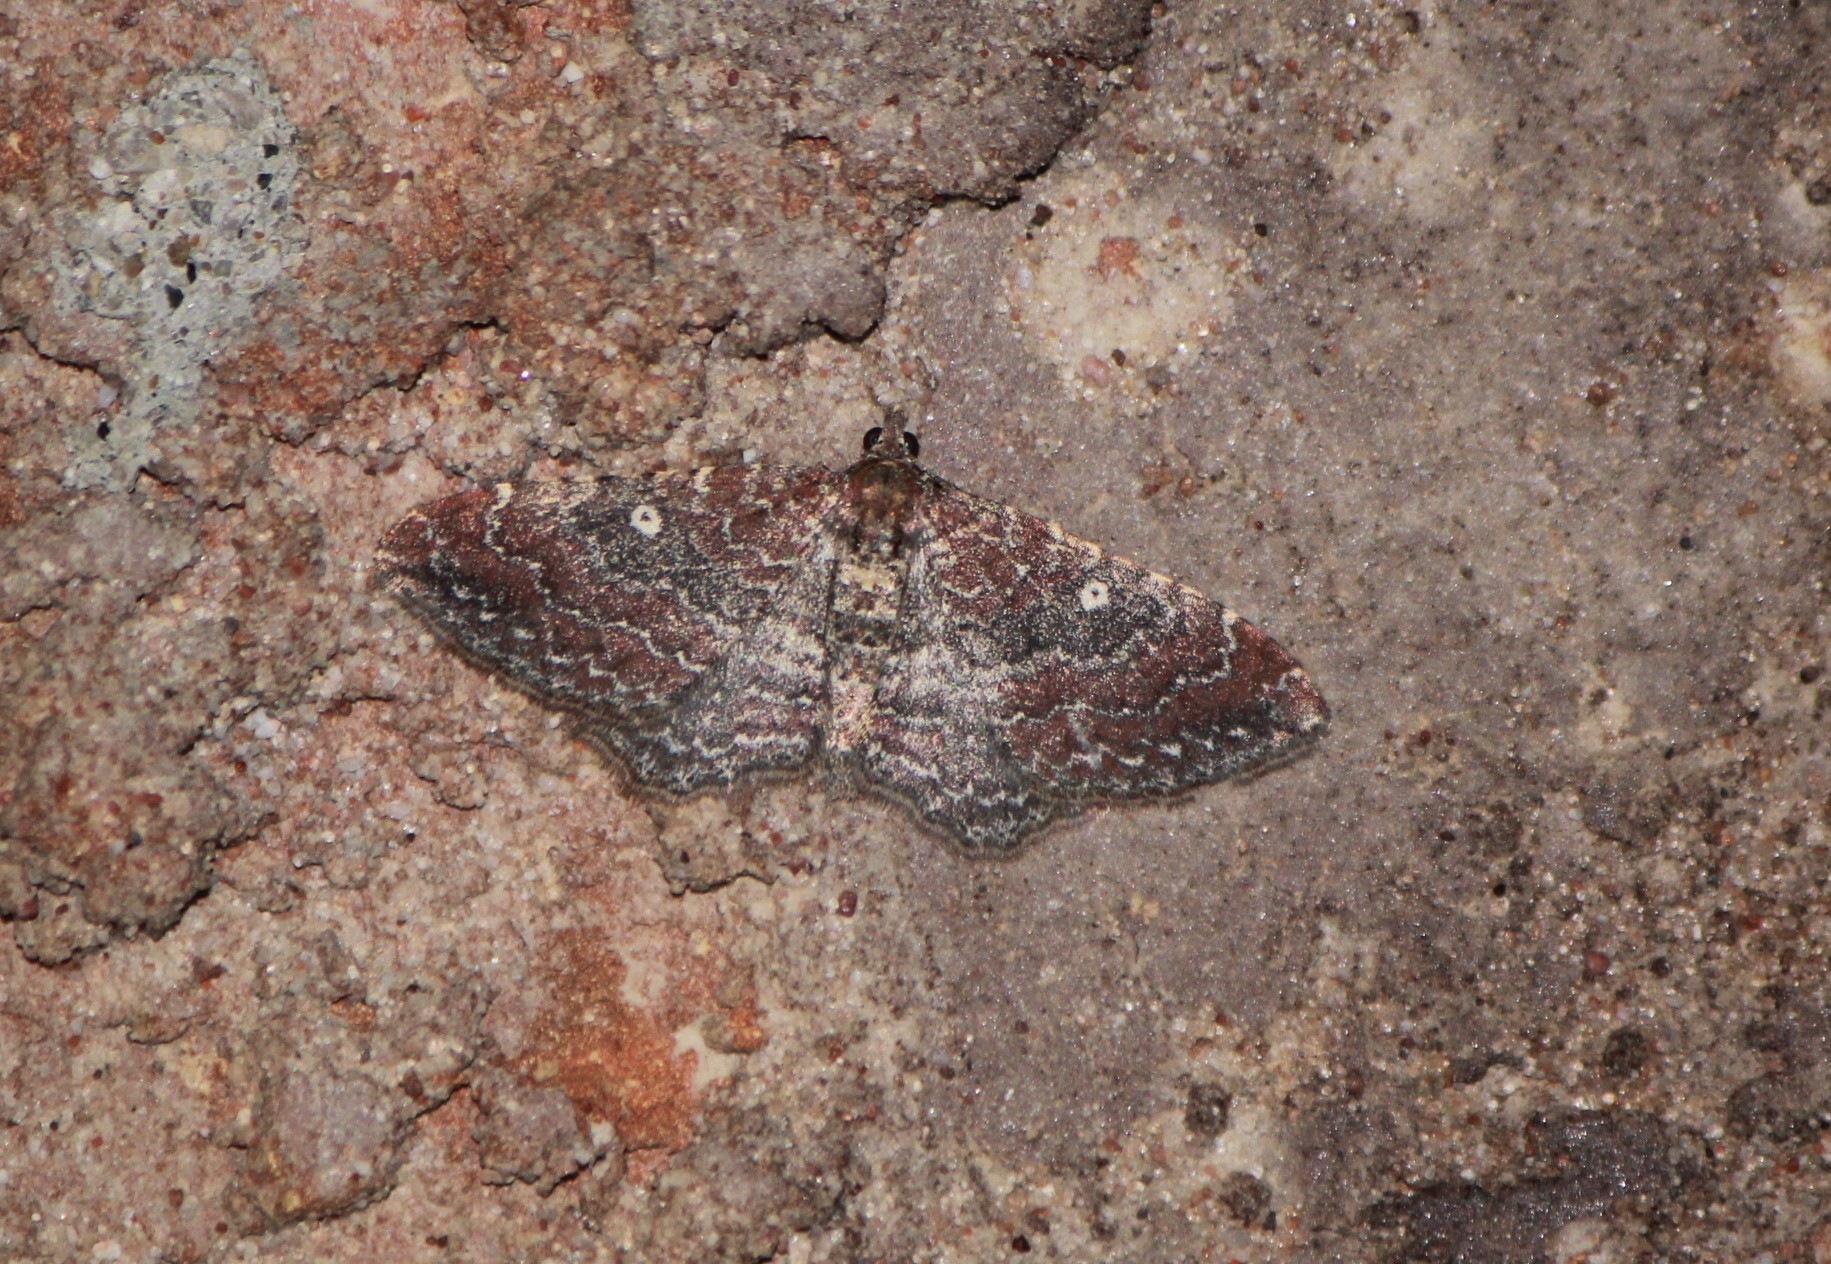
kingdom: Animalia
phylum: Arthropoda
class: Insecta
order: Lepidoptera
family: Geometridae
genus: Orthonama
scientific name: Orthonama obstipata
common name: The gem
